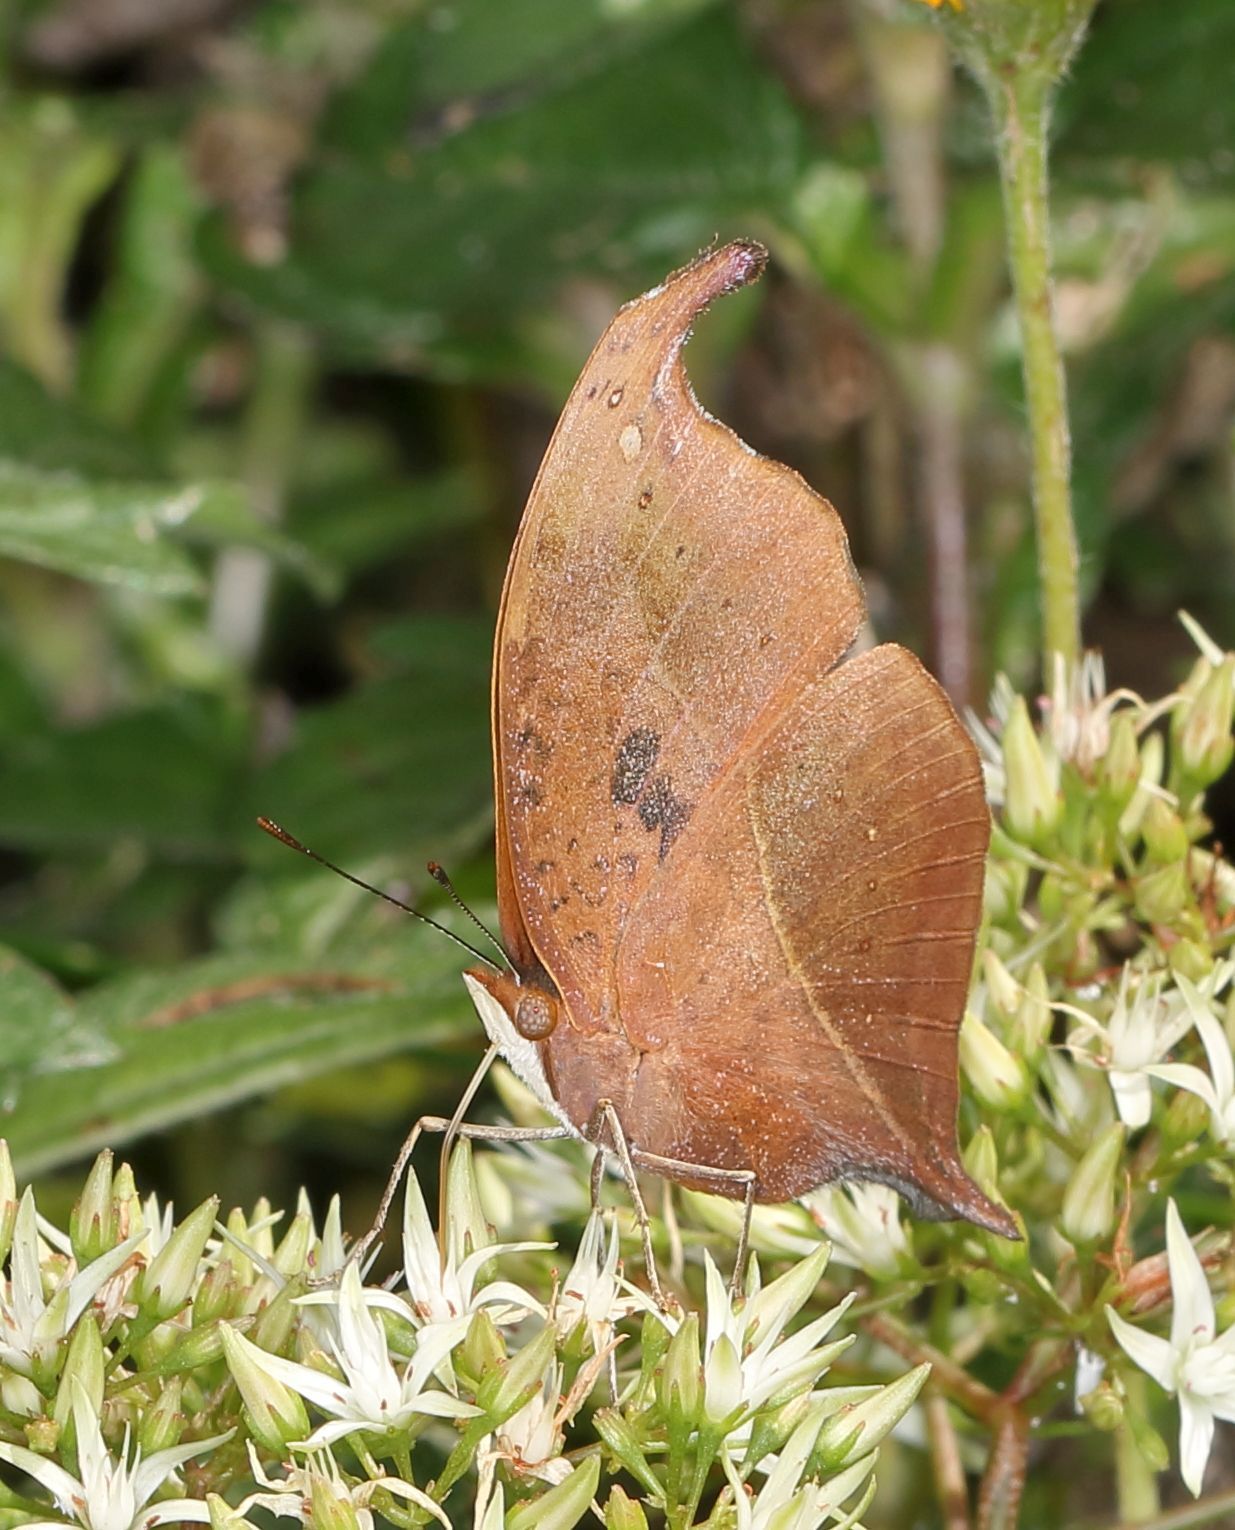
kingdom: Animalia
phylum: Arthropoda
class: Insecta
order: Lepidoptera
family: Nymphalidae
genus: Junonia
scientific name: Junonia tugela
